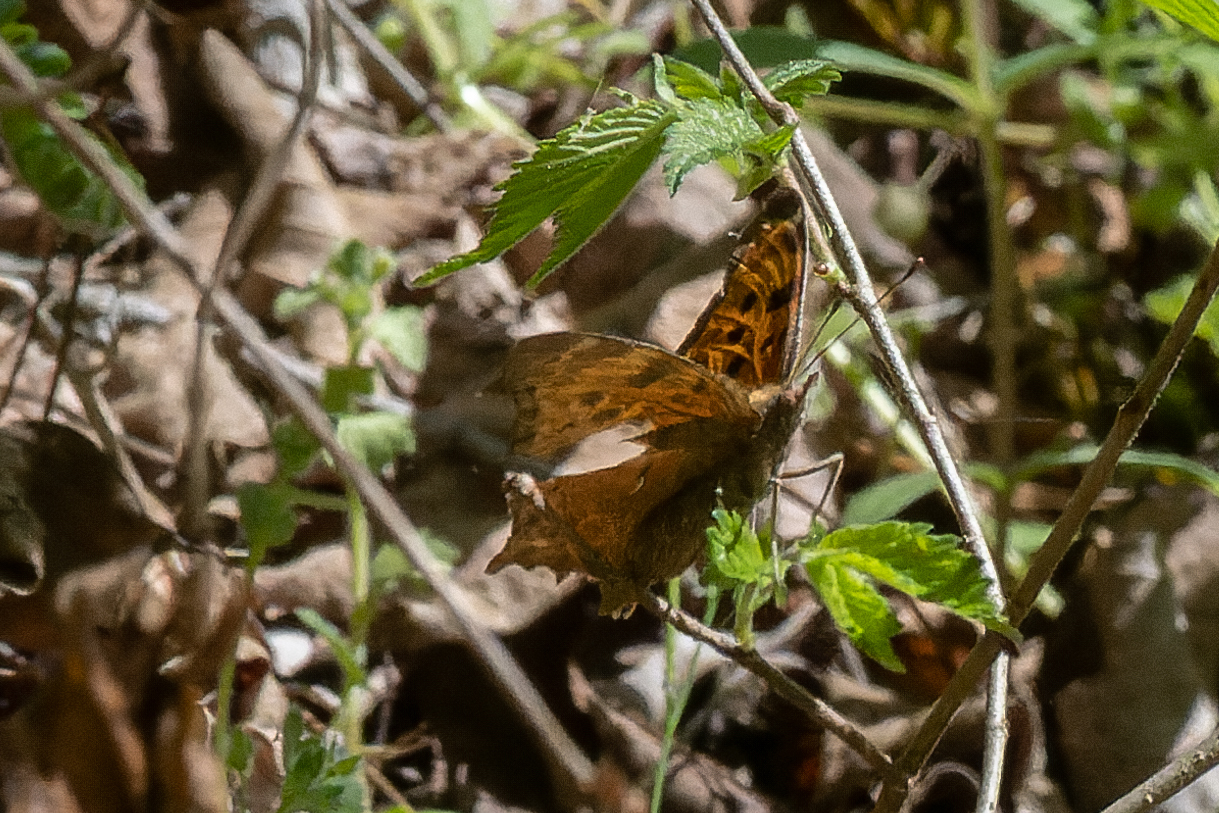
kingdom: Animalia
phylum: Arthropoda
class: Insecta
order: Lepidoptera
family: Nymphalidae
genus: Polygonia
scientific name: Polygonia comma
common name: Eastern comma
